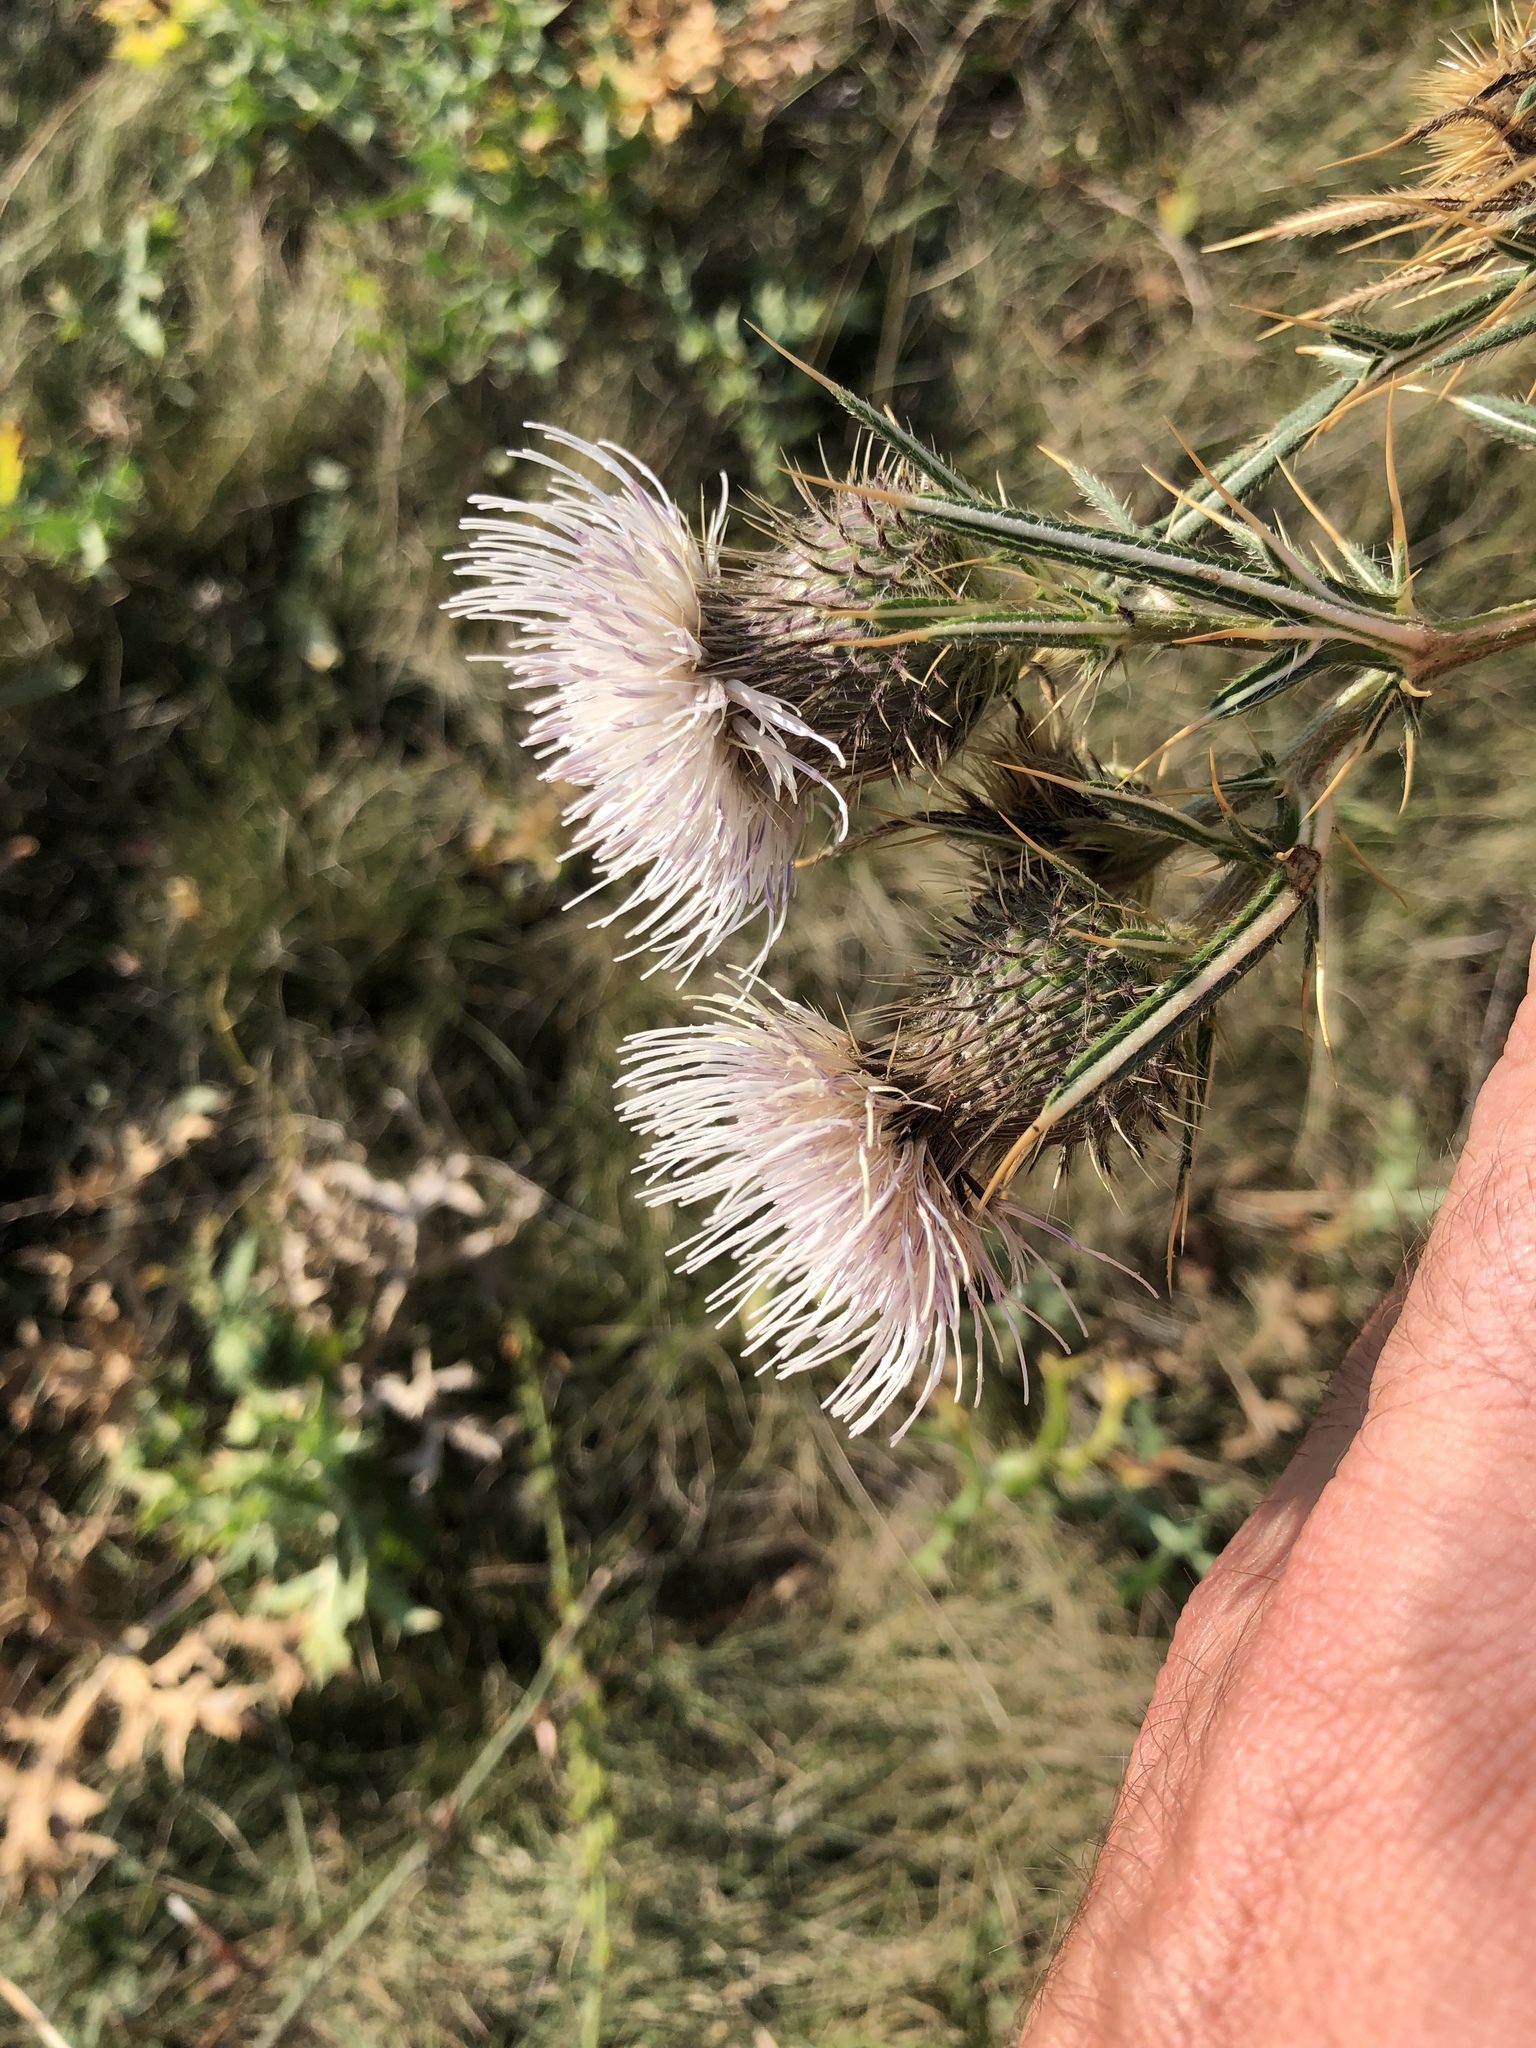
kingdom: Plantae
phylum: Tracheophyta
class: Magnoliopsida
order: Asterales
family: Asteraceae
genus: Lophiolepis
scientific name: Lophiolepis furiens
